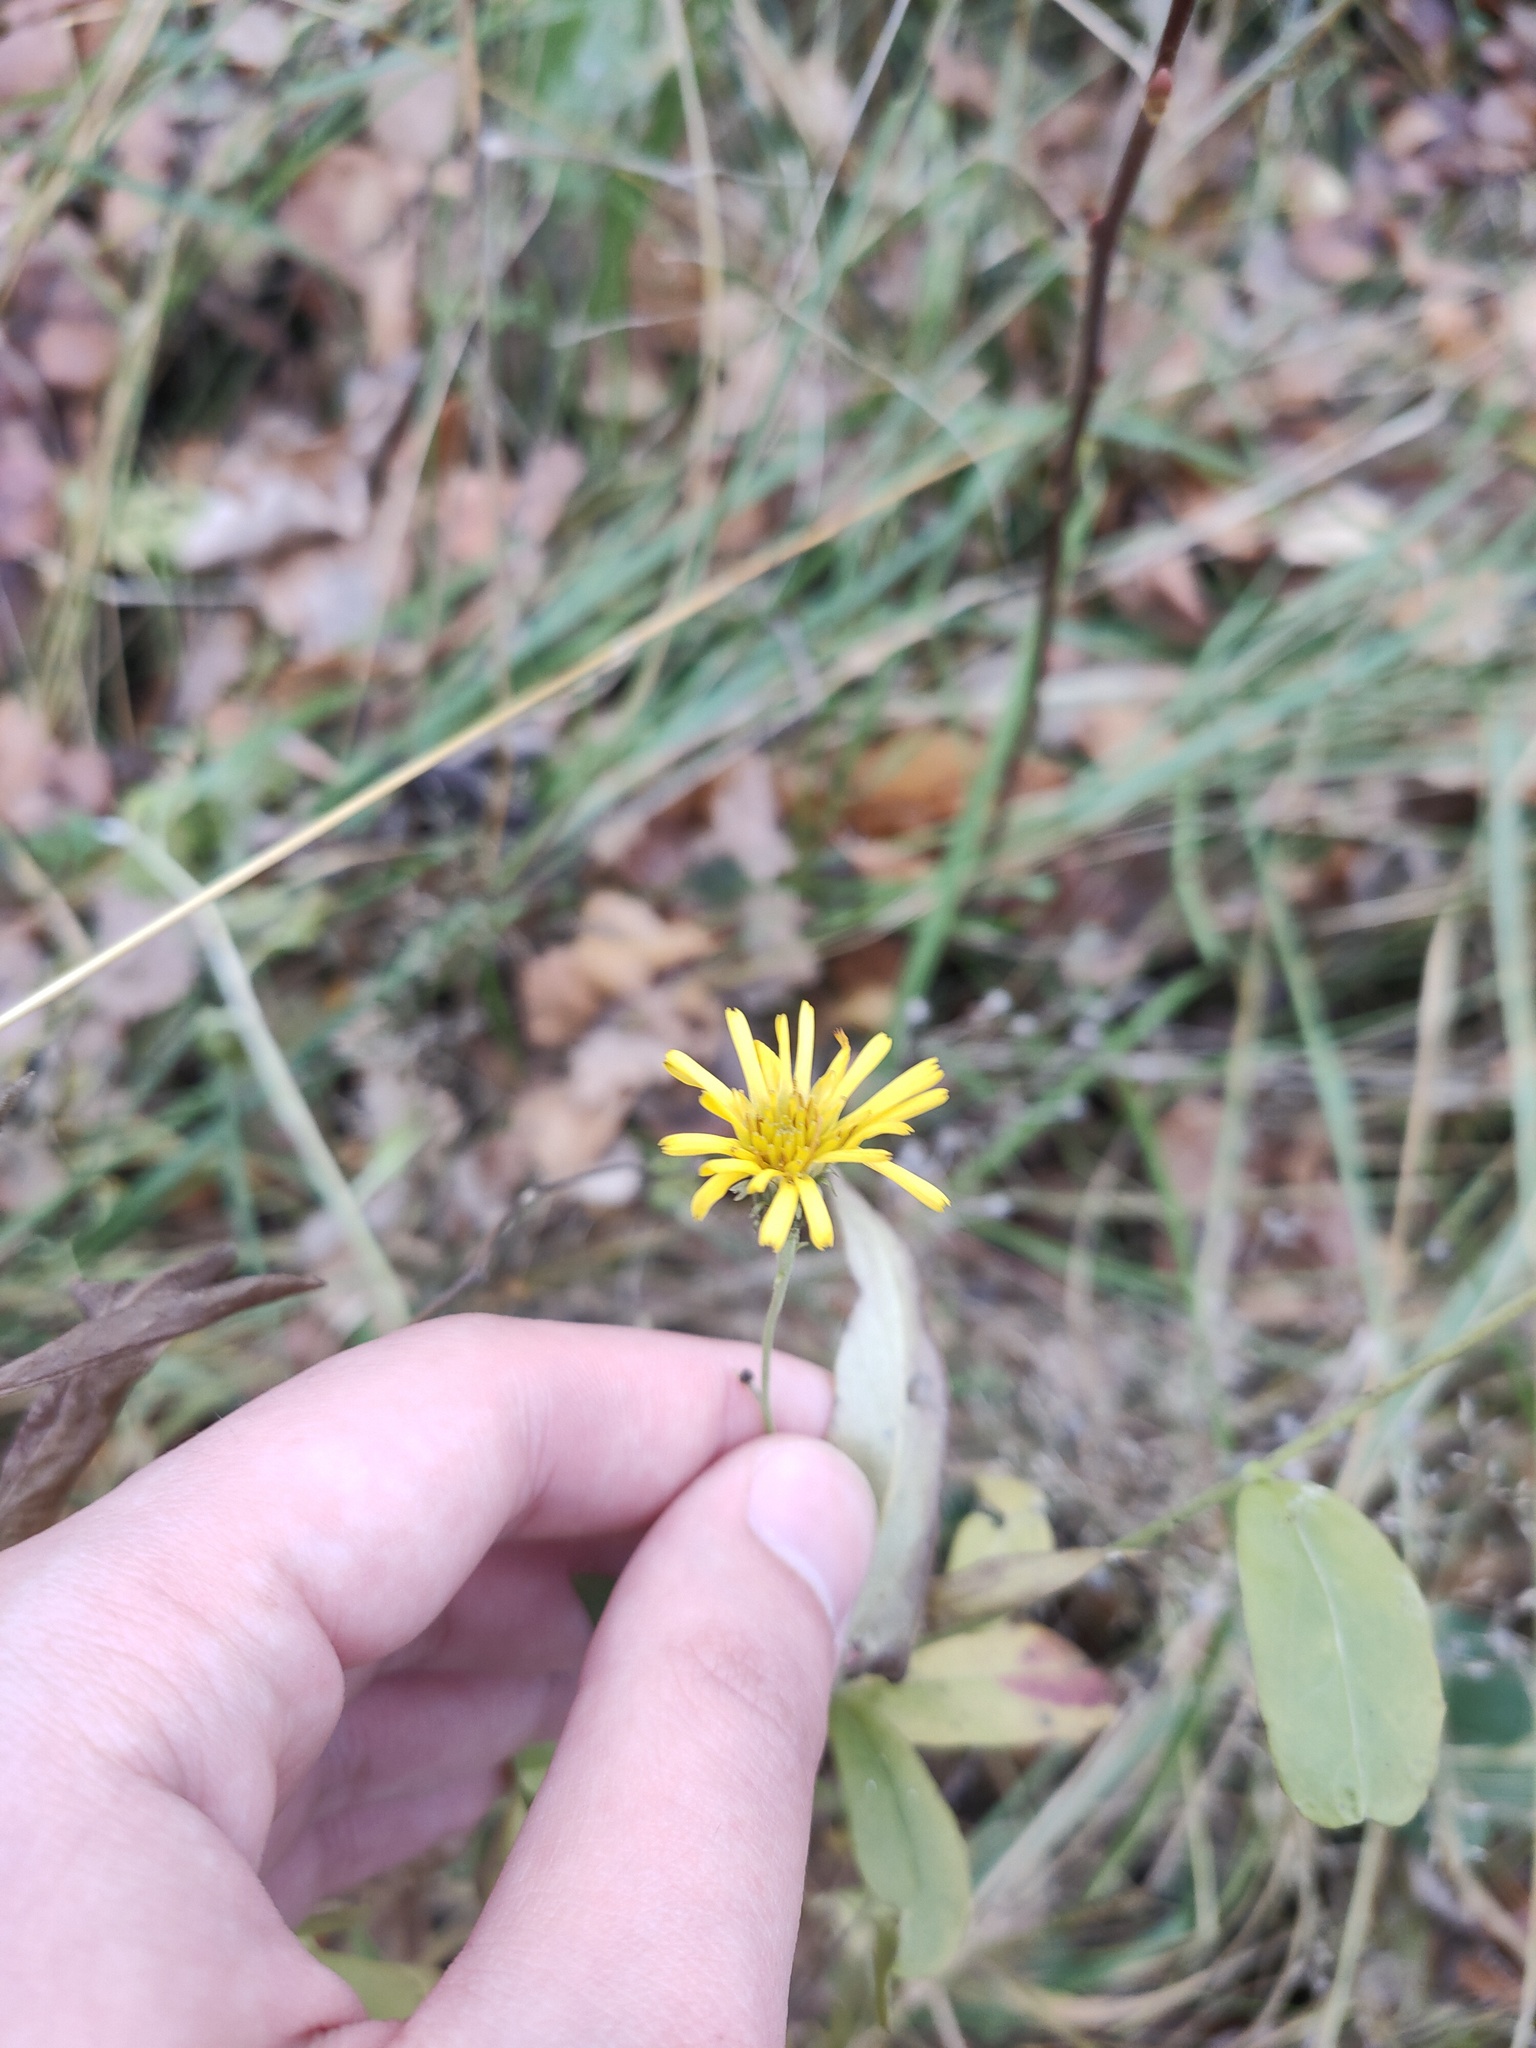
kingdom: Plantae
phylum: Tracheophyta
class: Magnoliopsida
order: Asterales
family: Asteraceae
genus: Hieracium
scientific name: Hieracium umbellatum
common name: Northern hawkweed
